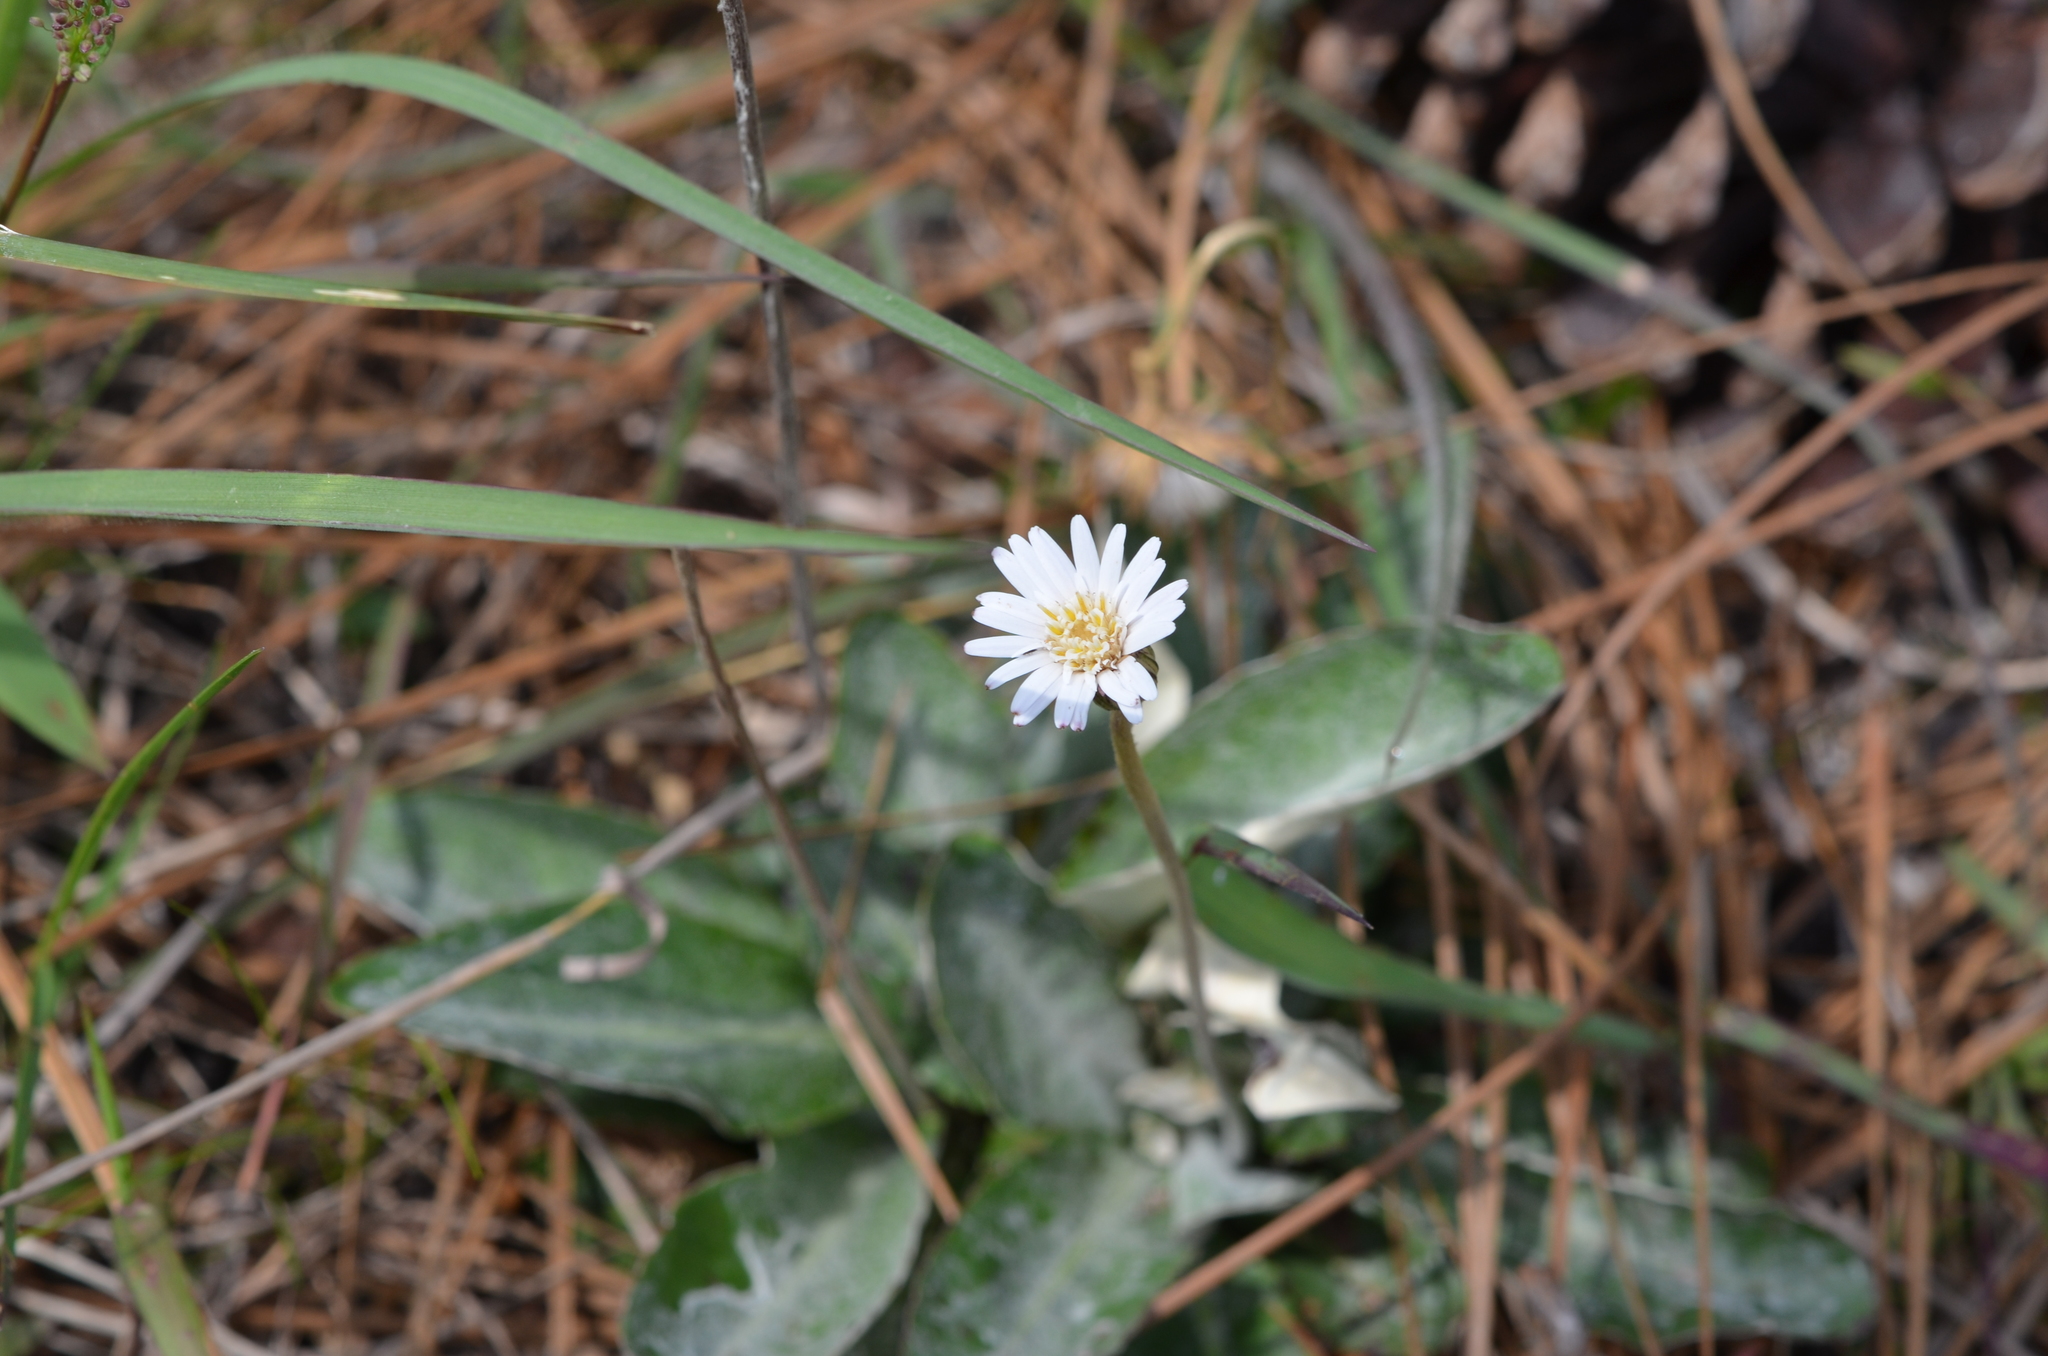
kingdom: Plantae
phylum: Tracheophyta
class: Magnoliopsida
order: Asterales
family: Asteraceae
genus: Chaptalia
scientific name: Chaptalia tomentosa
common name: Woolly sunbonnet
